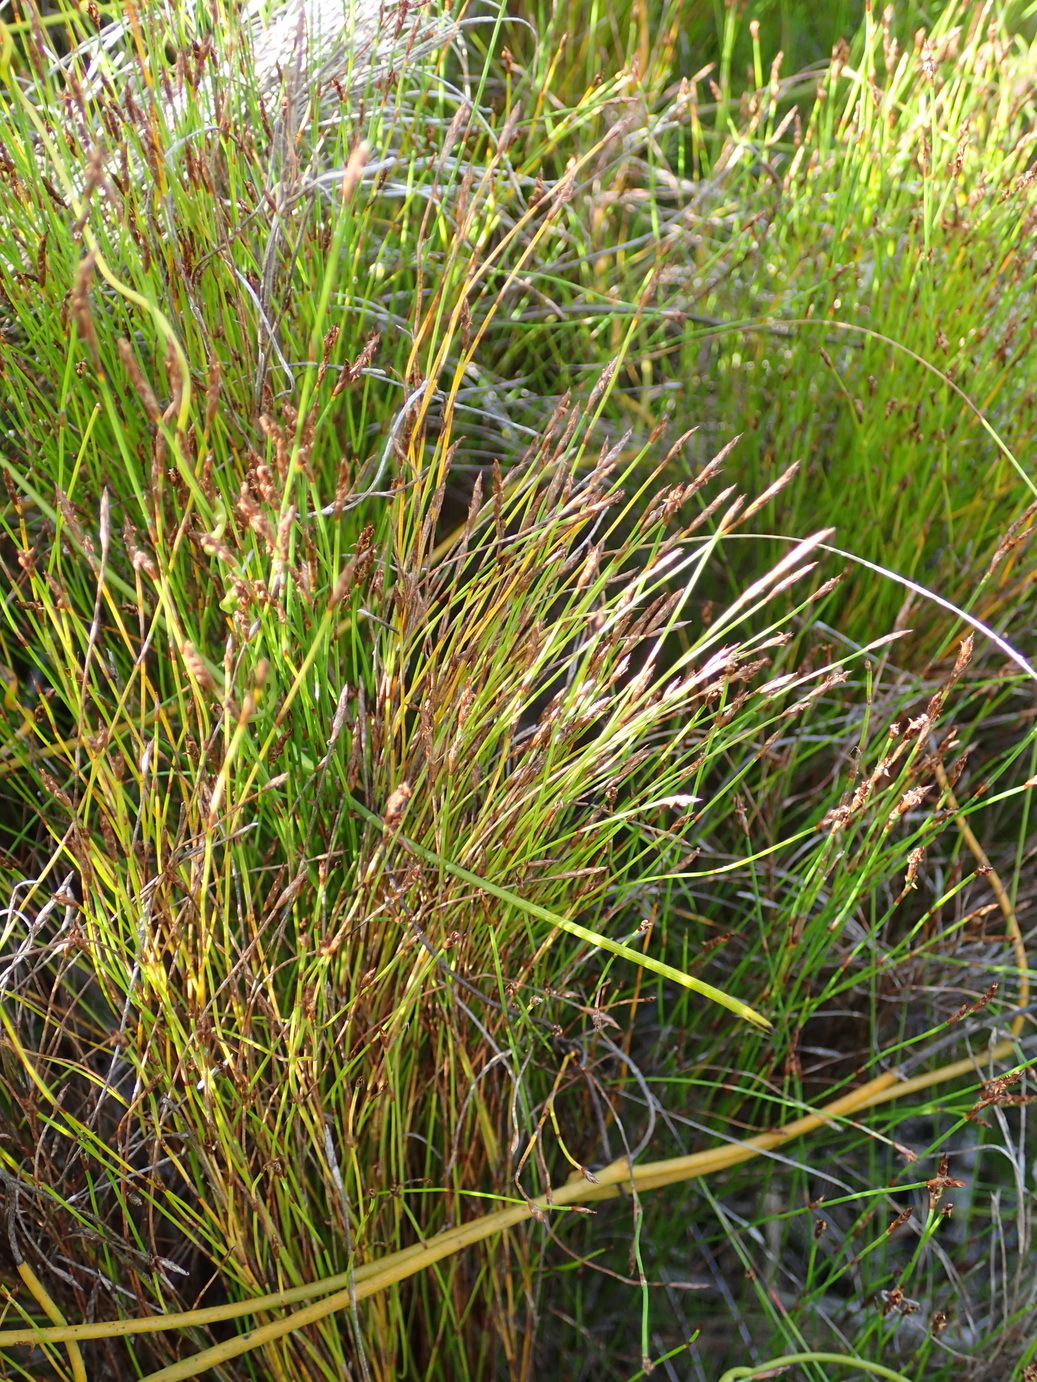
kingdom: Plantae
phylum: Tracheophyta
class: Liliopsida
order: Poales
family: Restionaceae
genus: Restio
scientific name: Restio leptoclados
